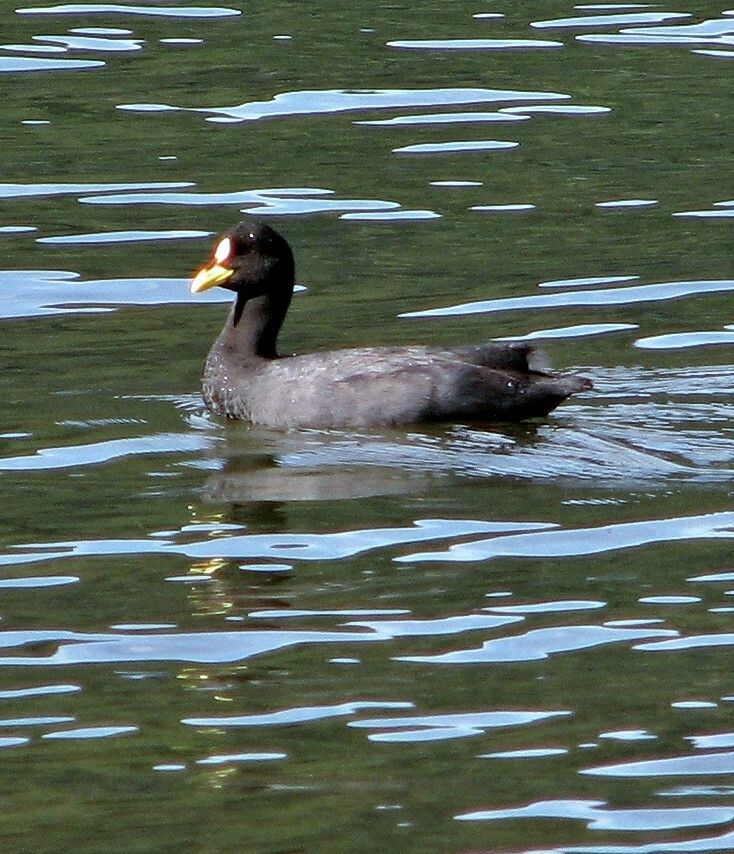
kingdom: Animalia
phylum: Chordata
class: Aves
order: Gruiformes
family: Rallidae
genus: Fulica
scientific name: Fulica armillata
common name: Red-gartered coot
